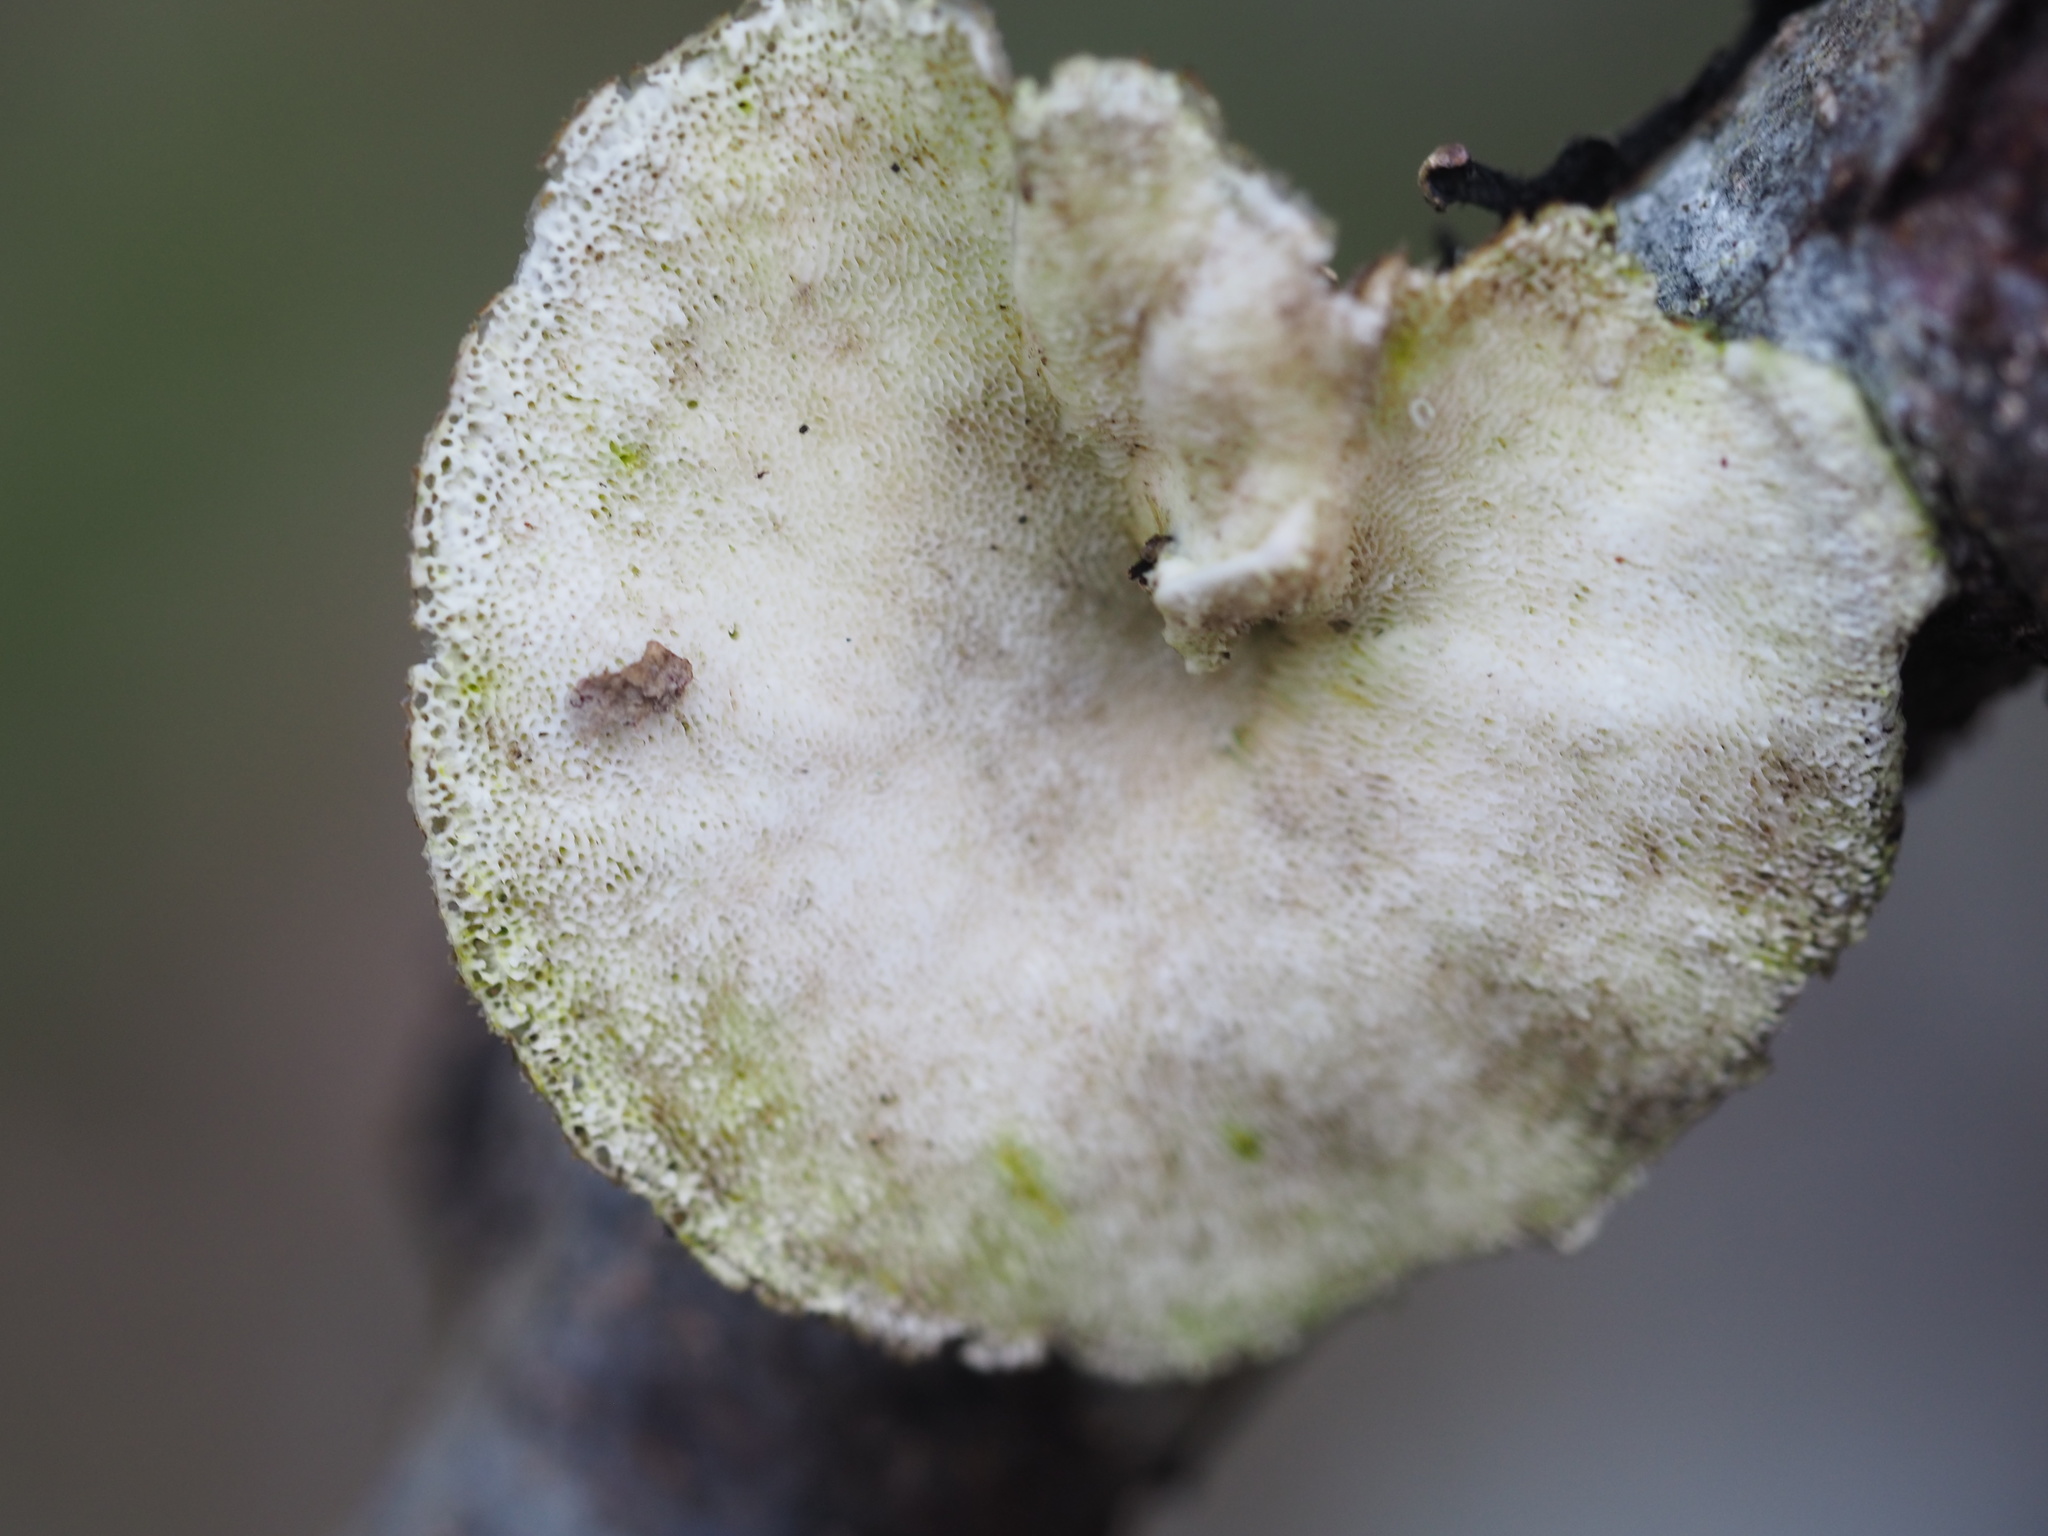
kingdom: Fungi
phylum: Basidiomycota
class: Agaricomycetes
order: Polyporales
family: Polyporaceae
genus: Trametes
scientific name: Trametes versicolor
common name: Turkeytail
